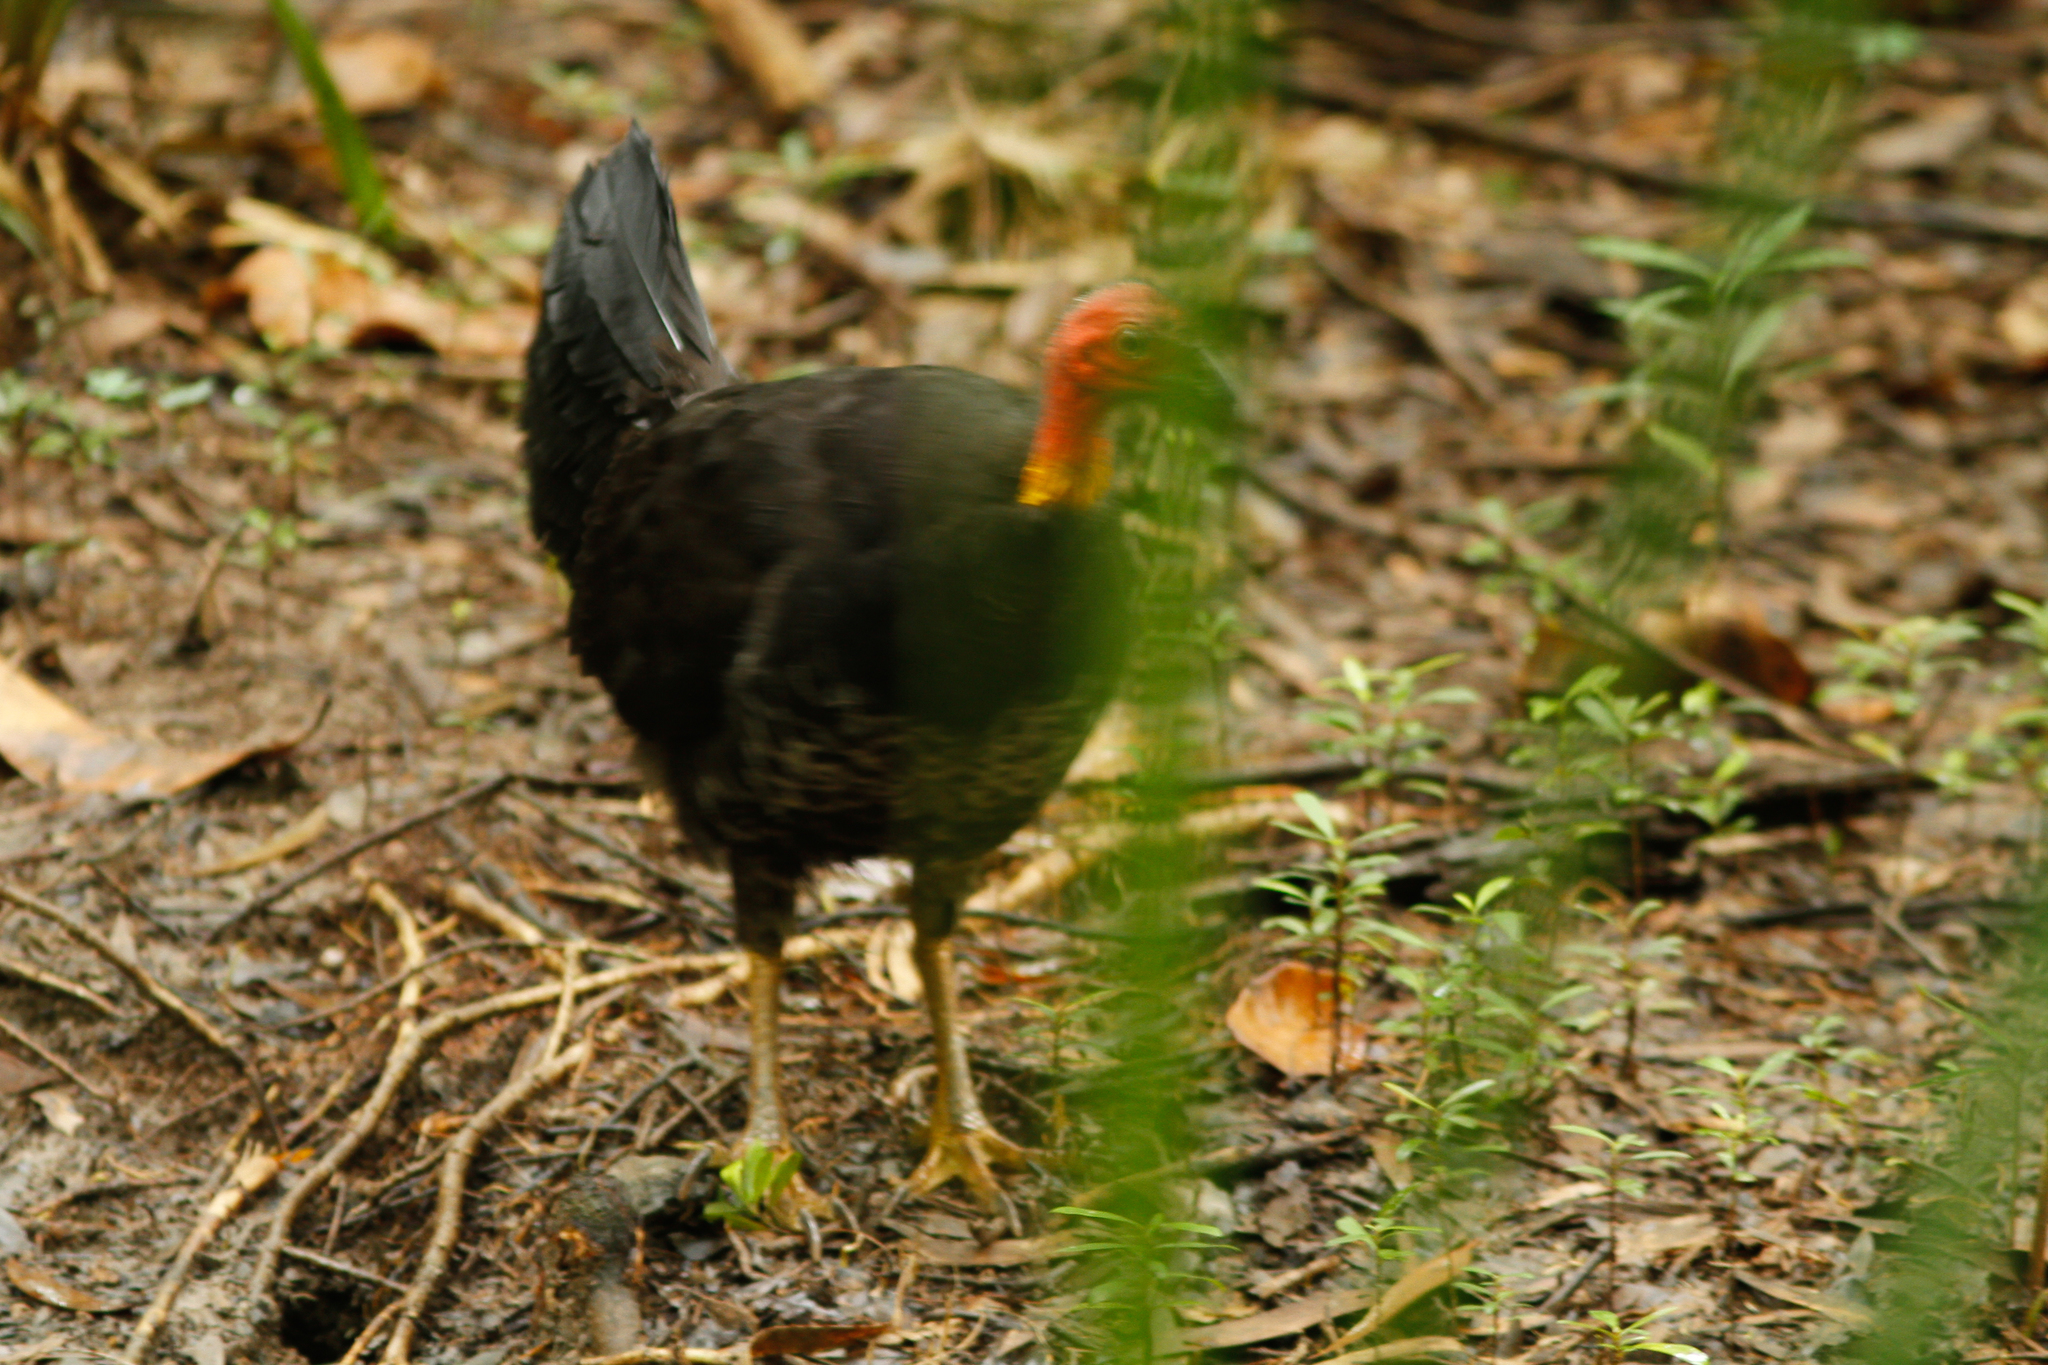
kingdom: Animalia
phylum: Chordata
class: Aves
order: Galliformes
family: Megapodiidae
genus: Alectura
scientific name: Alectura lathami
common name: Australian brushturkey
